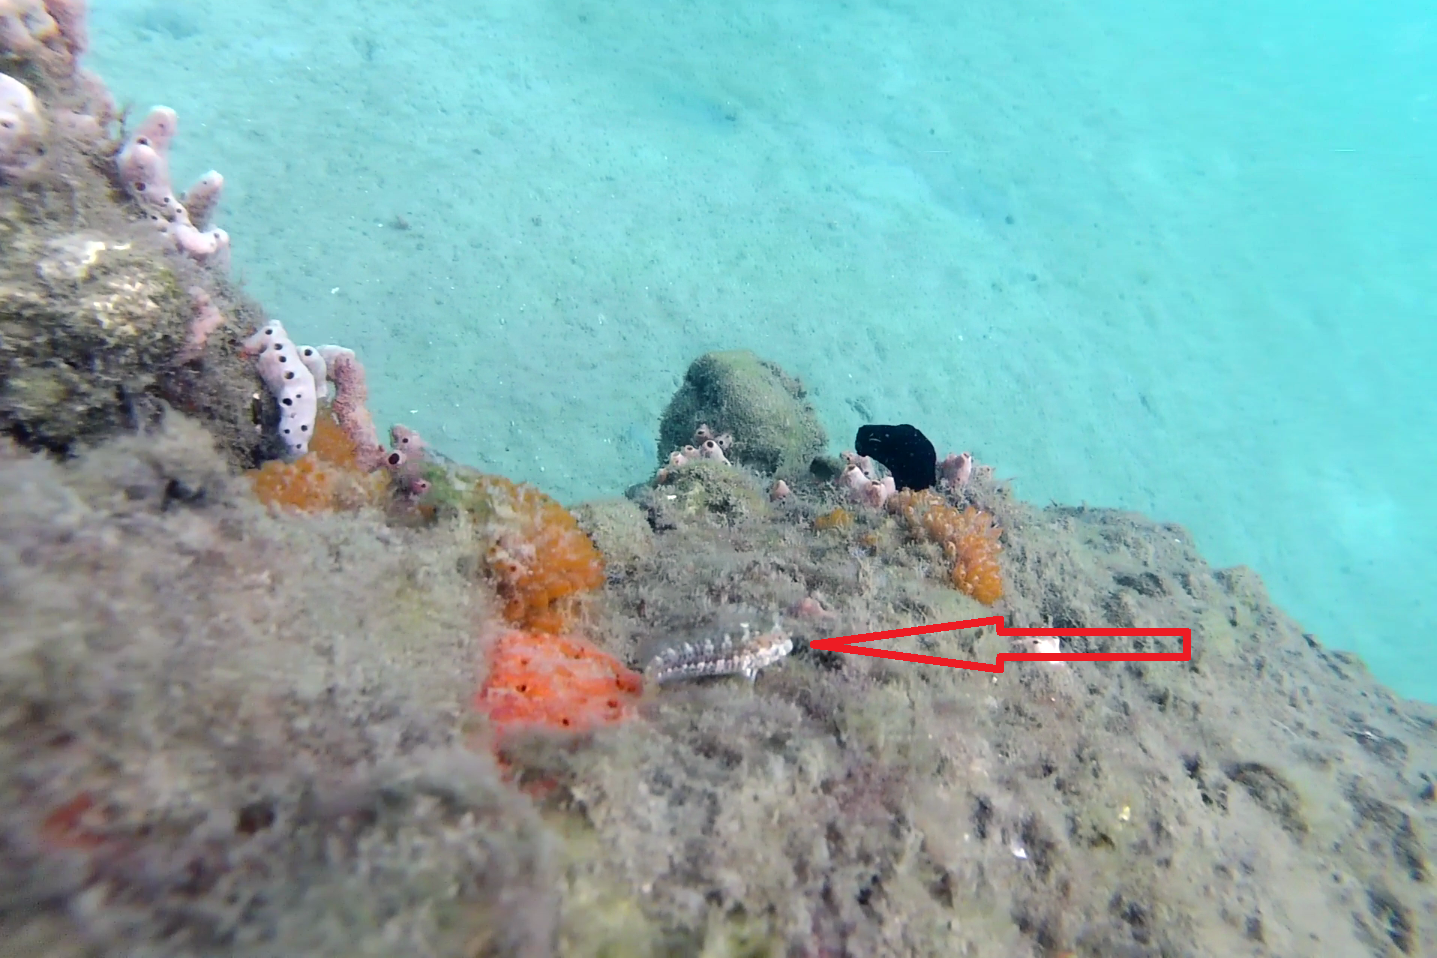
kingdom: Animalia
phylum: Chordata
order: Perciformes
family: Blenniidae
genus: Parablennius
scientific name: Parablennius marmoreus
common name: Seaweed blenny
